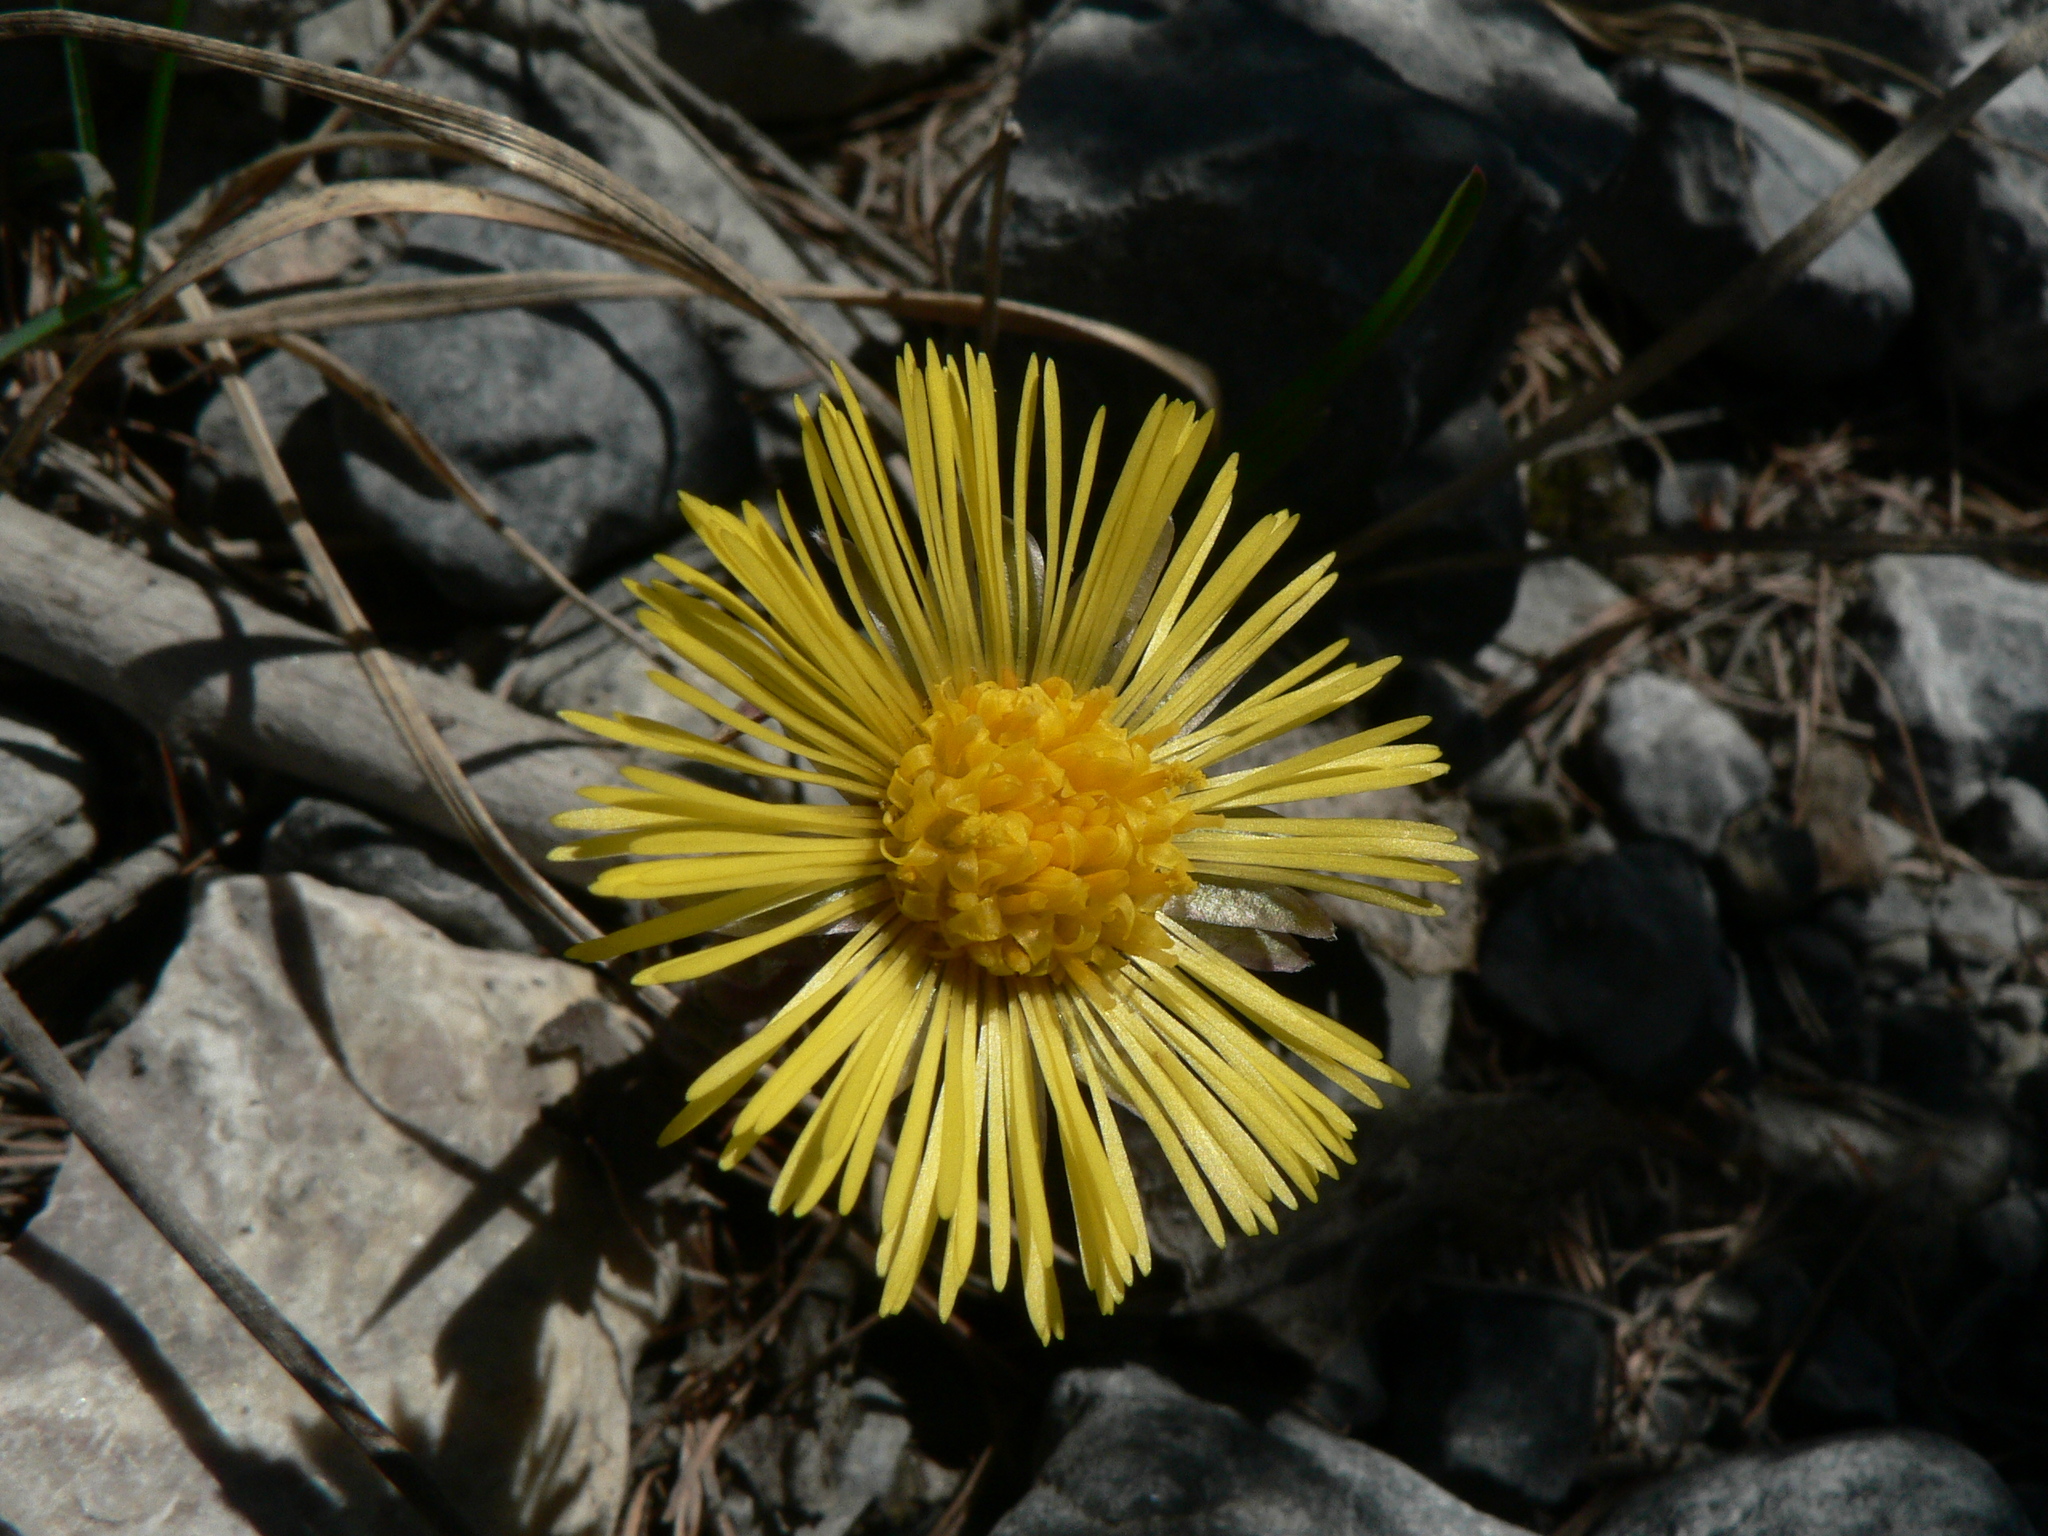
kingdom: Plantae
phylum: Tracheophyta
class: Magnoliopsida
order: Asterales
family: Asteraceae
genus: Tussilago
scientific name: Tussilago farfara
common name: Coltsfoot
